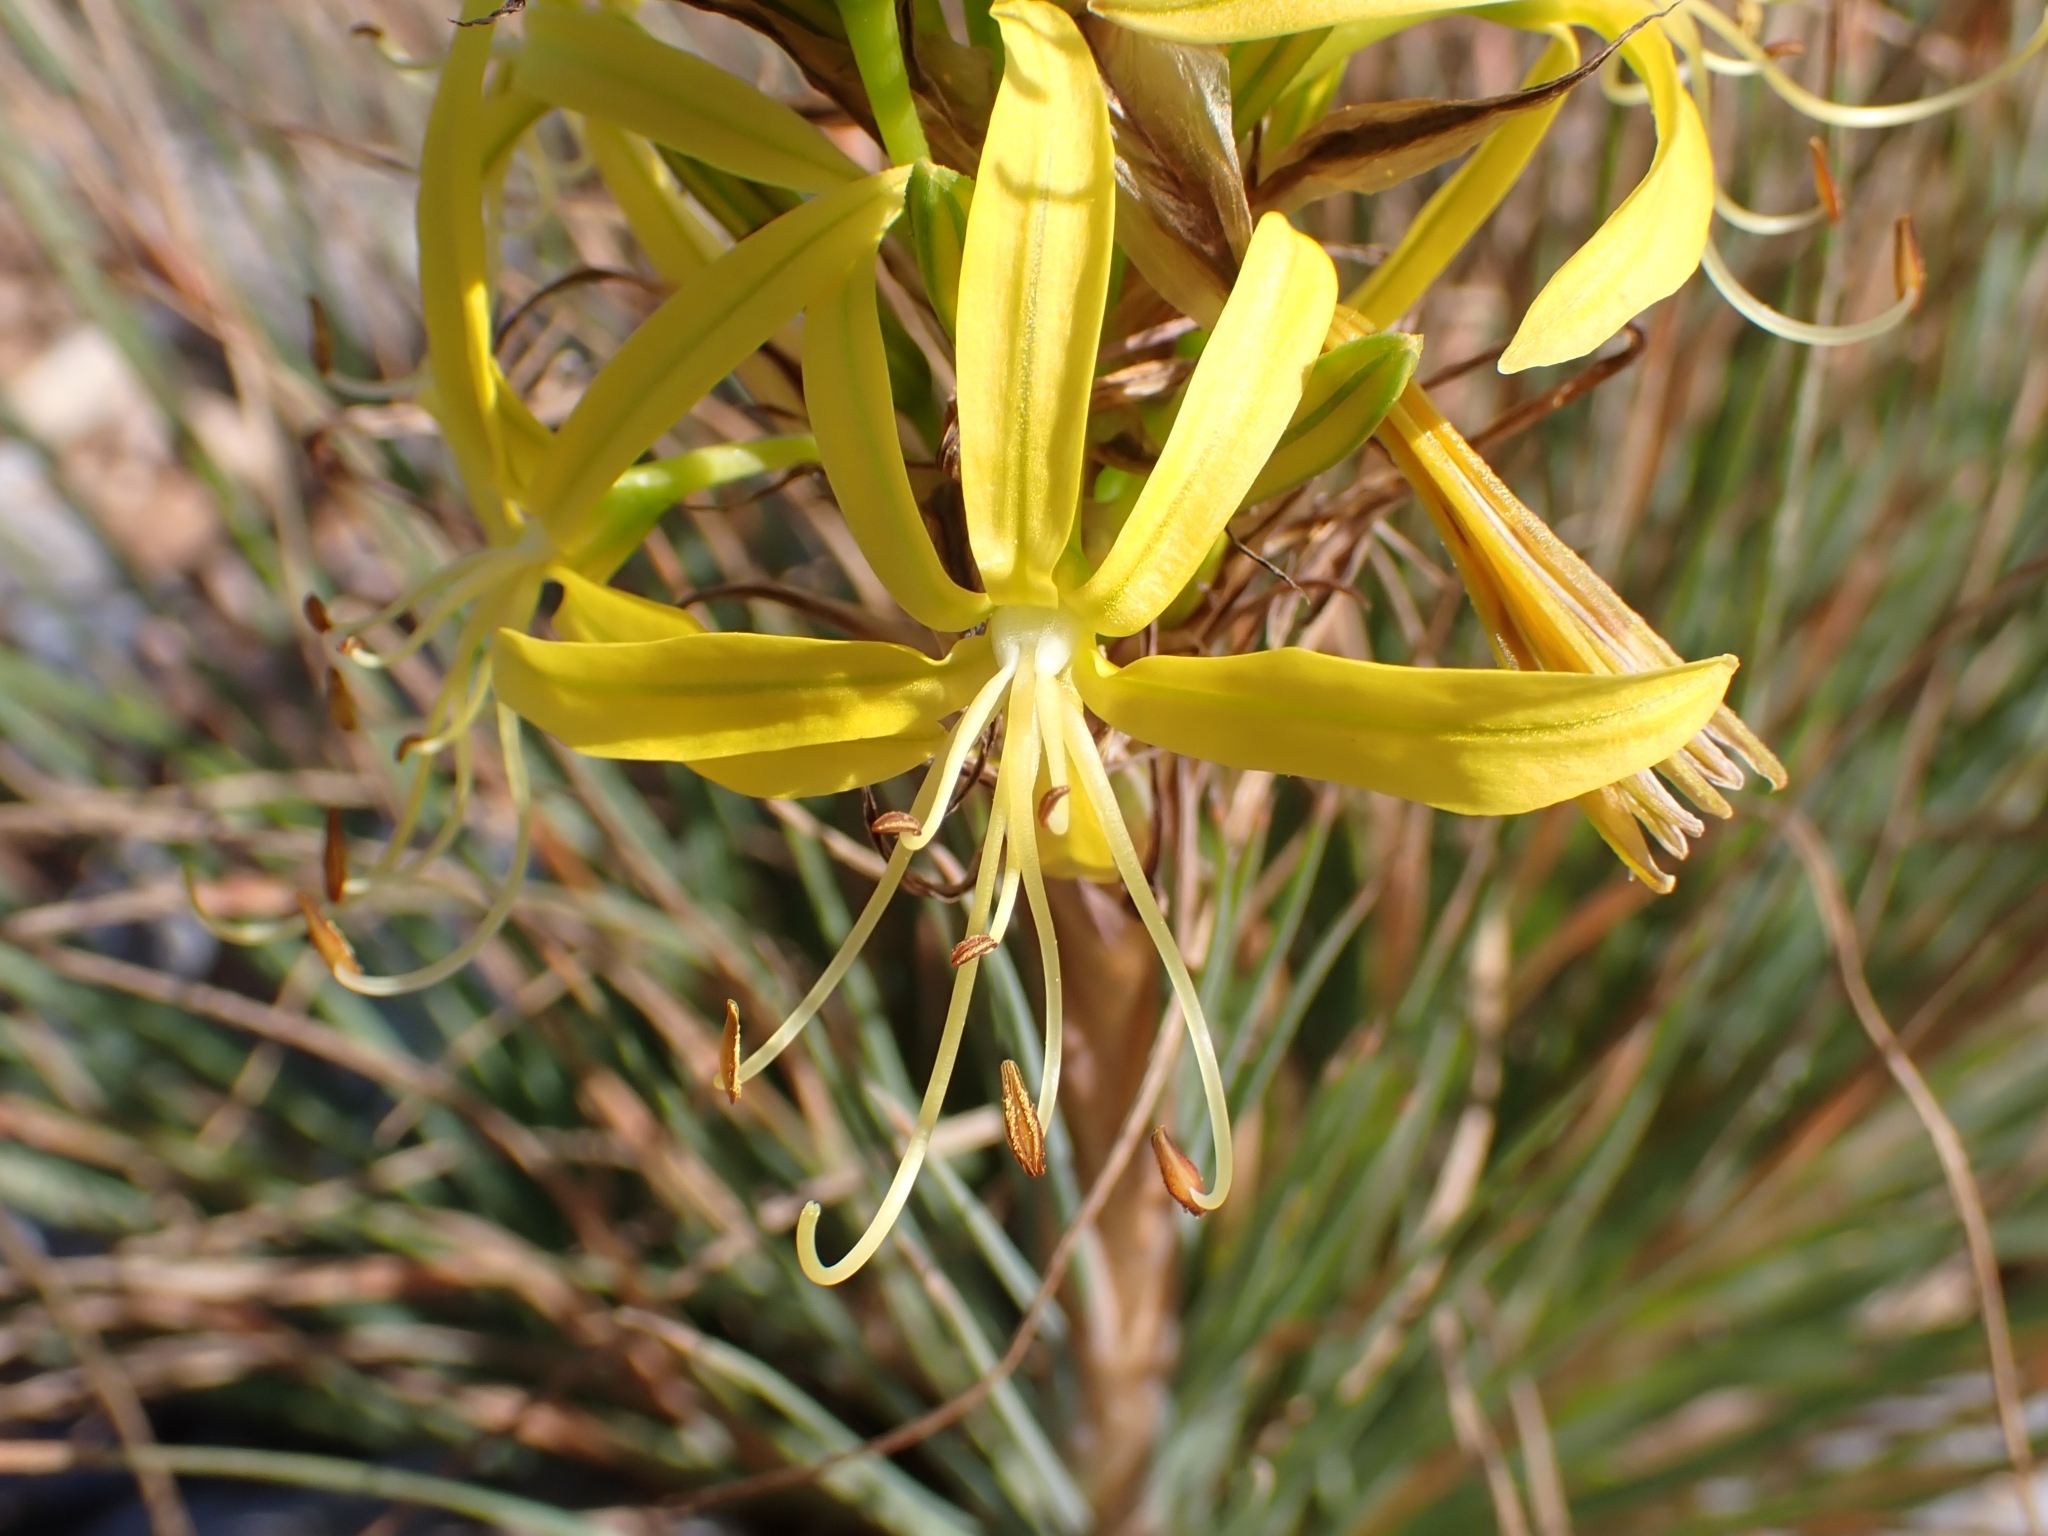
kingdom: Plantae
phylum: Tracheophyta
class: Liliopsida
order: Asparagales
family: Asphodelaceae
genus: Asphodeline
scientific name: Asphodeline lutea
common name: Yellow asphodel
